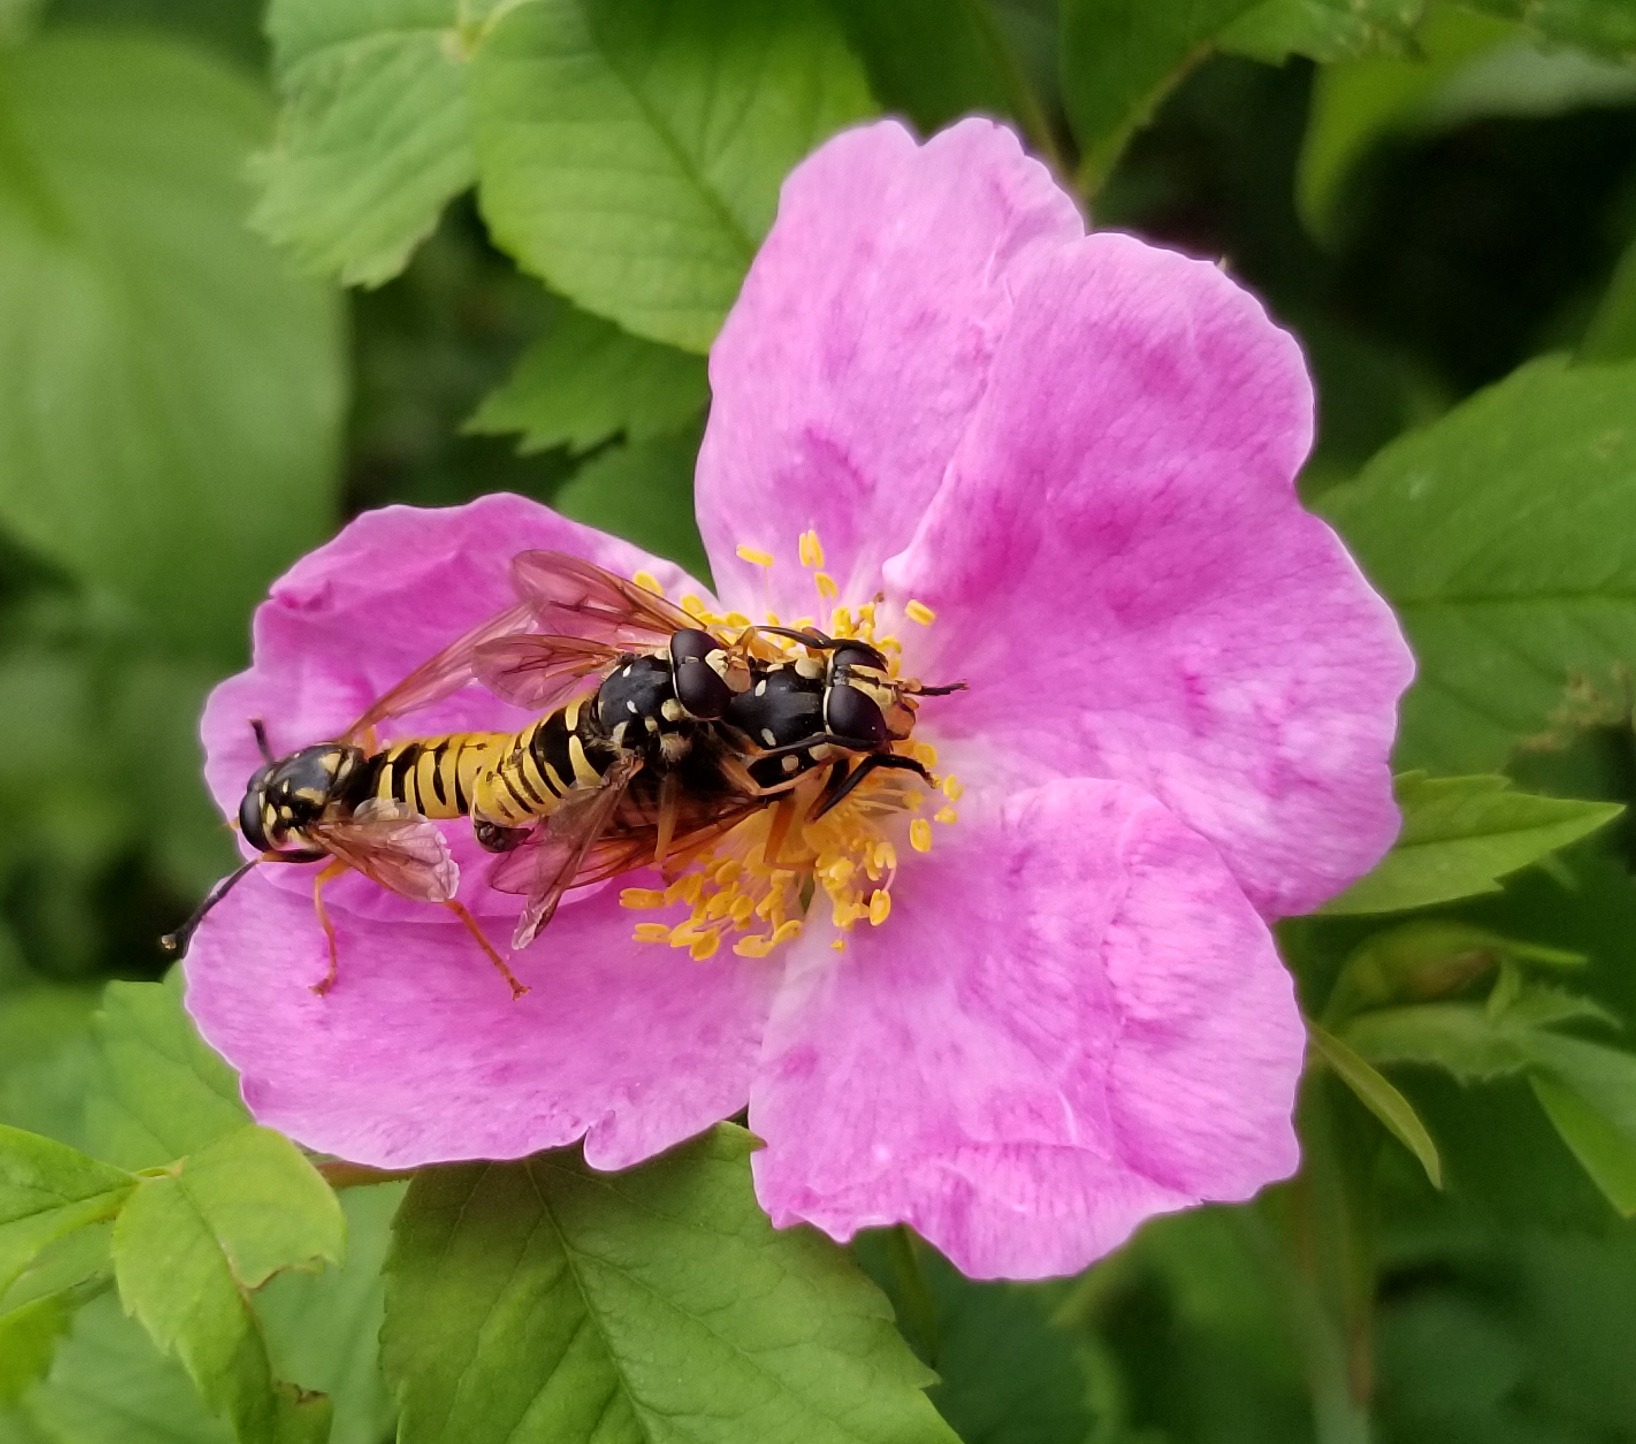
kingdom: Animalia
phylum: Arthropoda
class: Insecta
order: Diptera
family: Syrphidae
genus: Temnostoma
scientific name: Temnostoma alternans
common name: Wasp-like falsehorn
